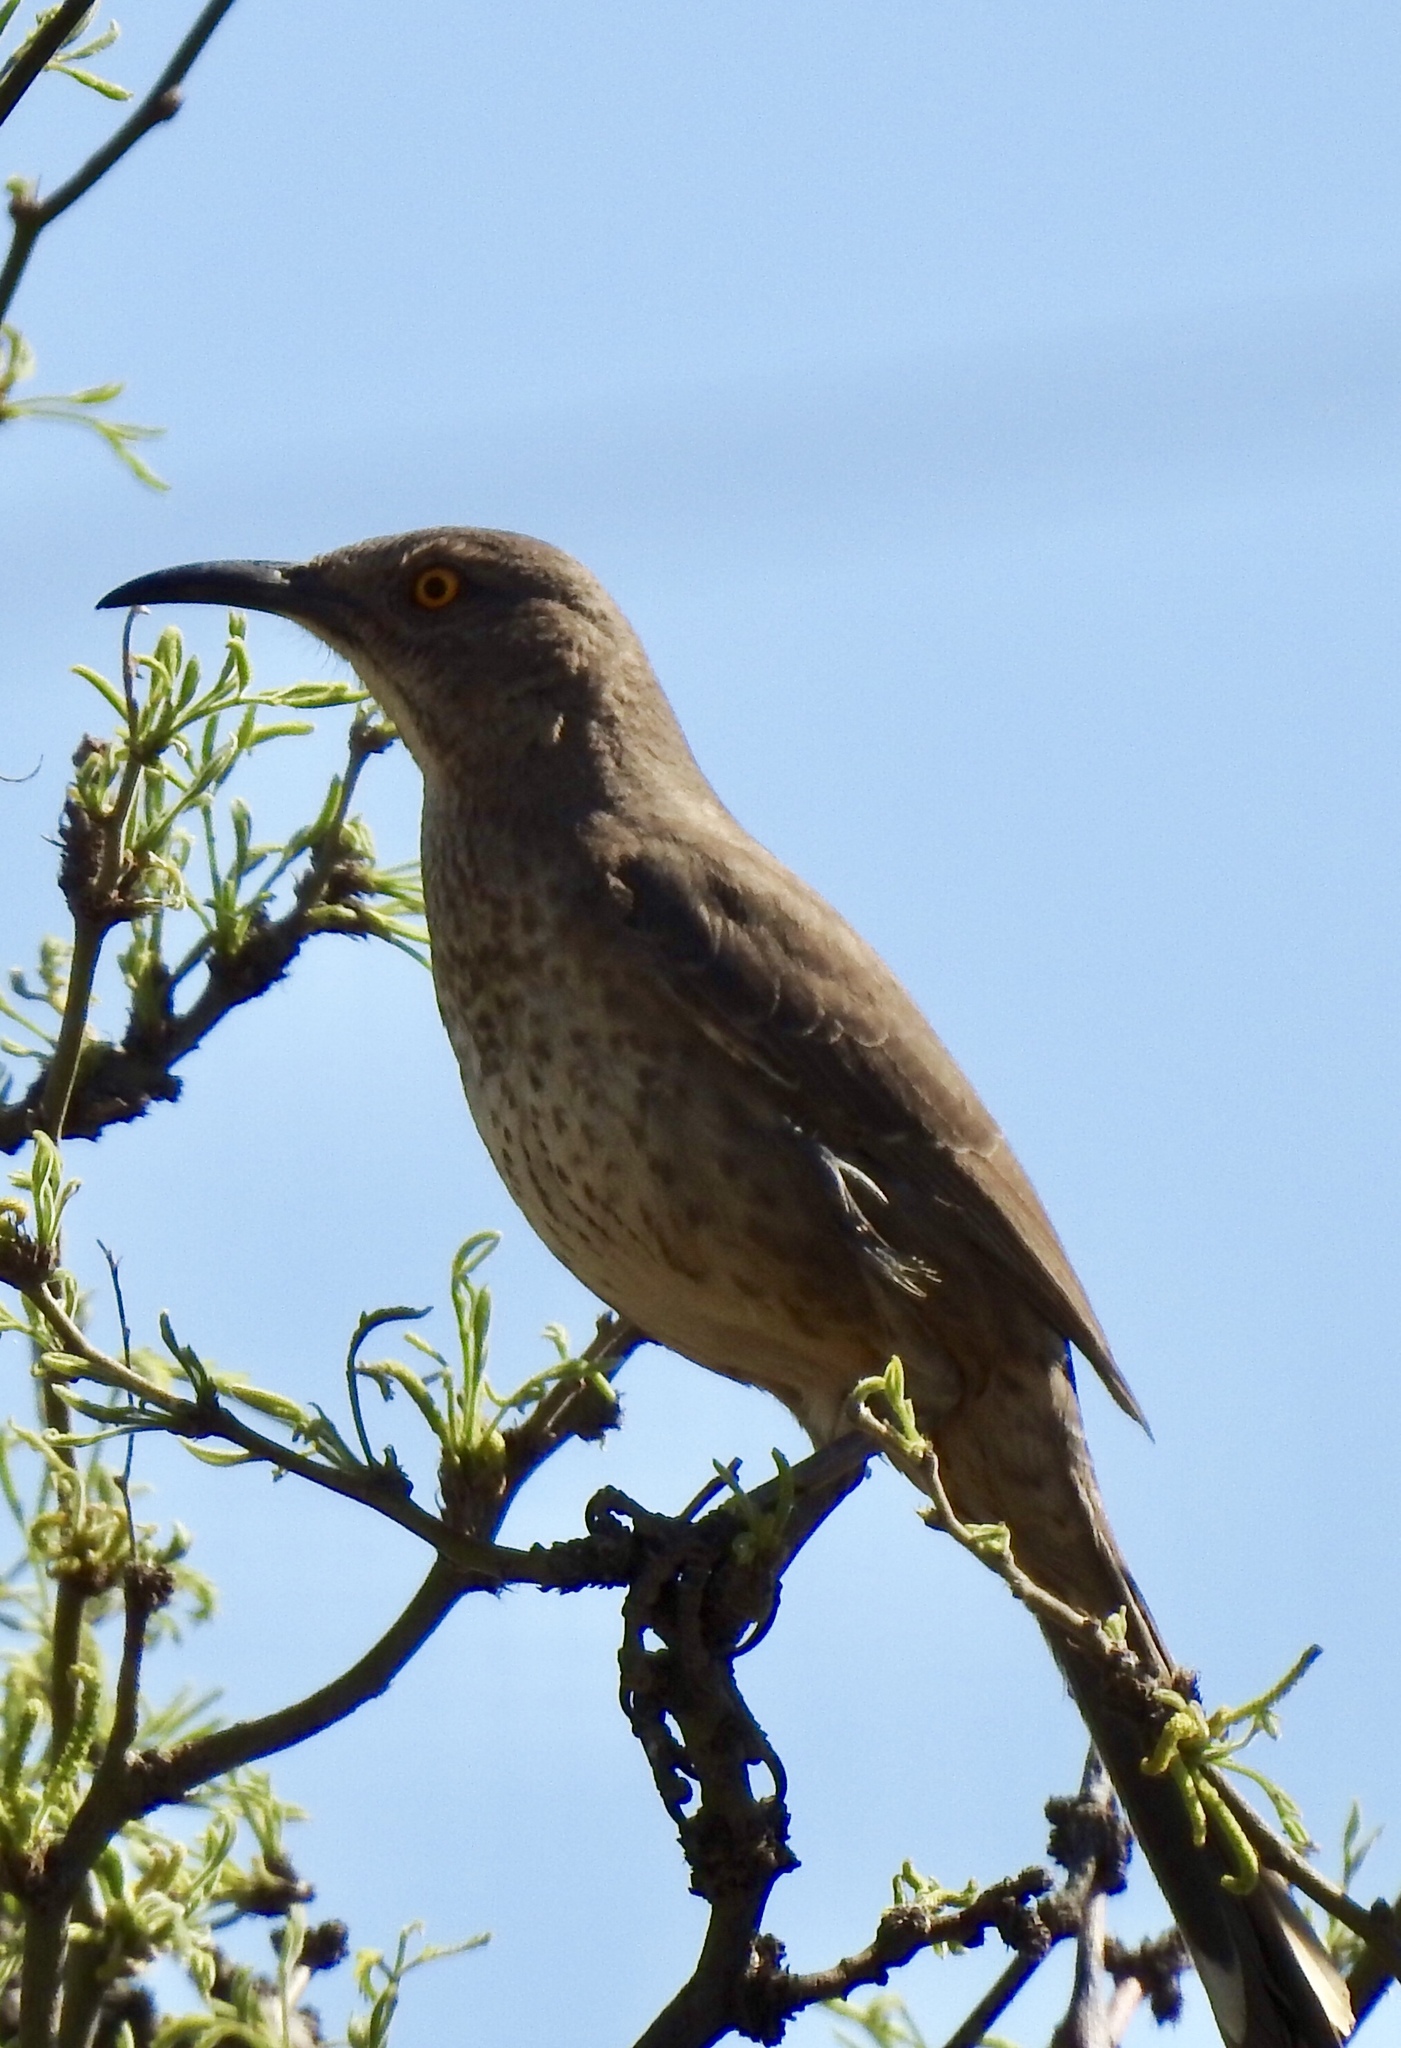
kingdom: Animalia
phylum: Chordata
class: Aves
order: Passeriformes
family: Mimidae
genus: Toxostoma
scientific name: Toxostoma curvirostre
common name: Curve-billed thrasher
